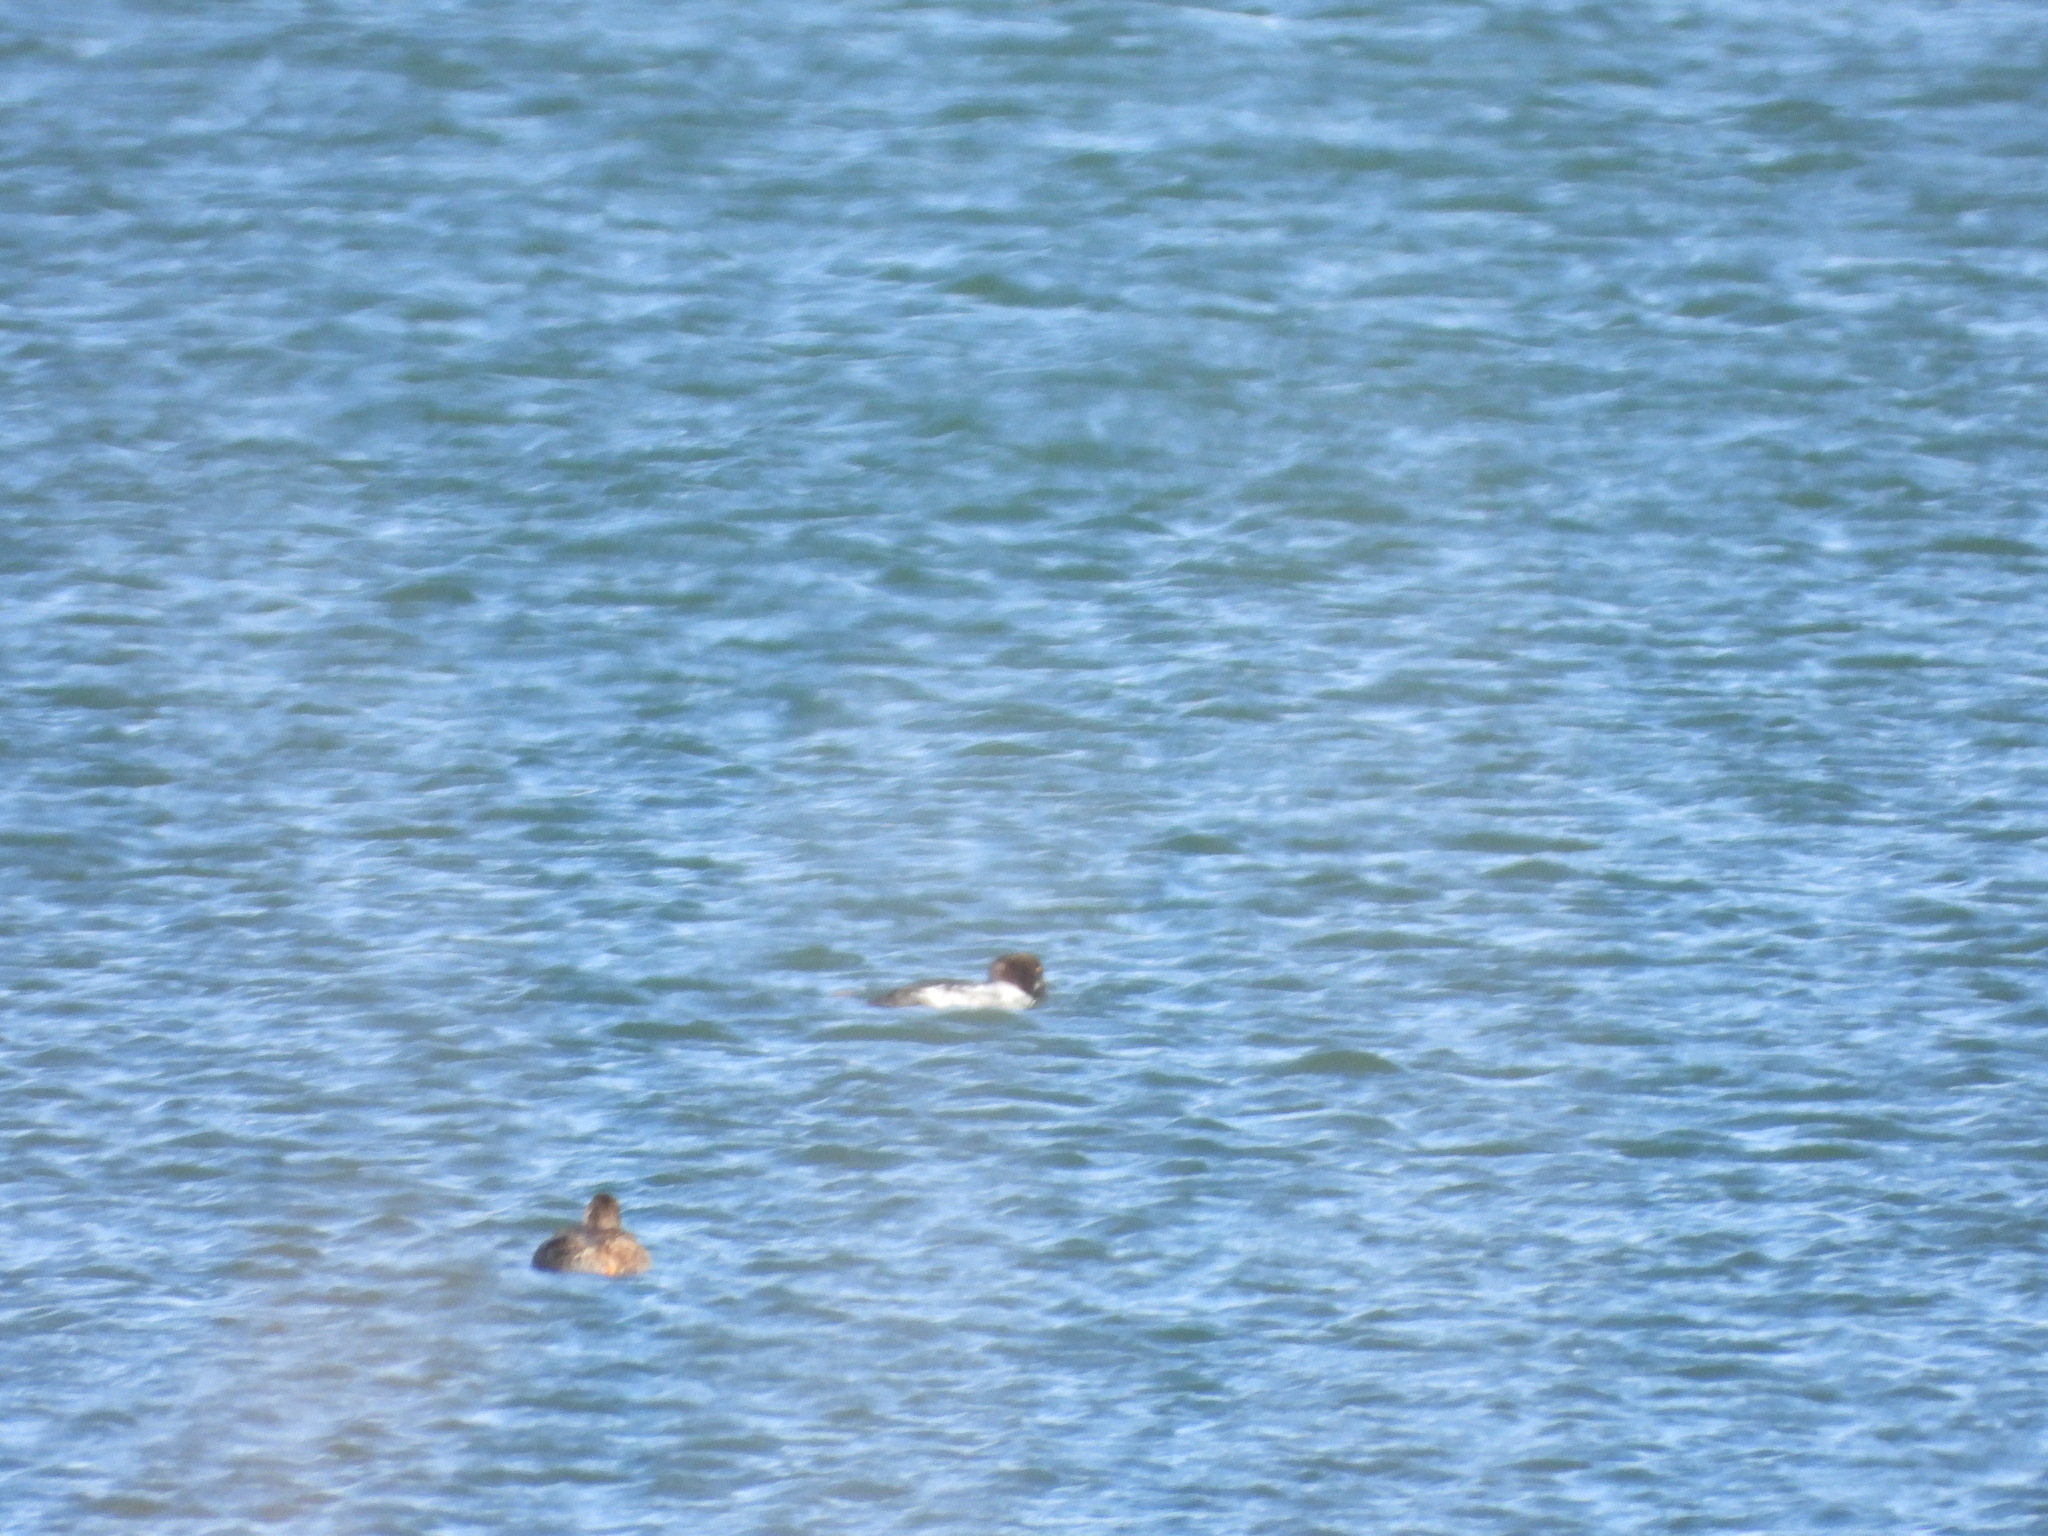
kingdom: Animalia
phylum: Chordata
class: Aves
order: Anseriformes
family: Anatidae
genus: Bucephala
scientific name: Bucephala clangula
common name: Common goldeneye
